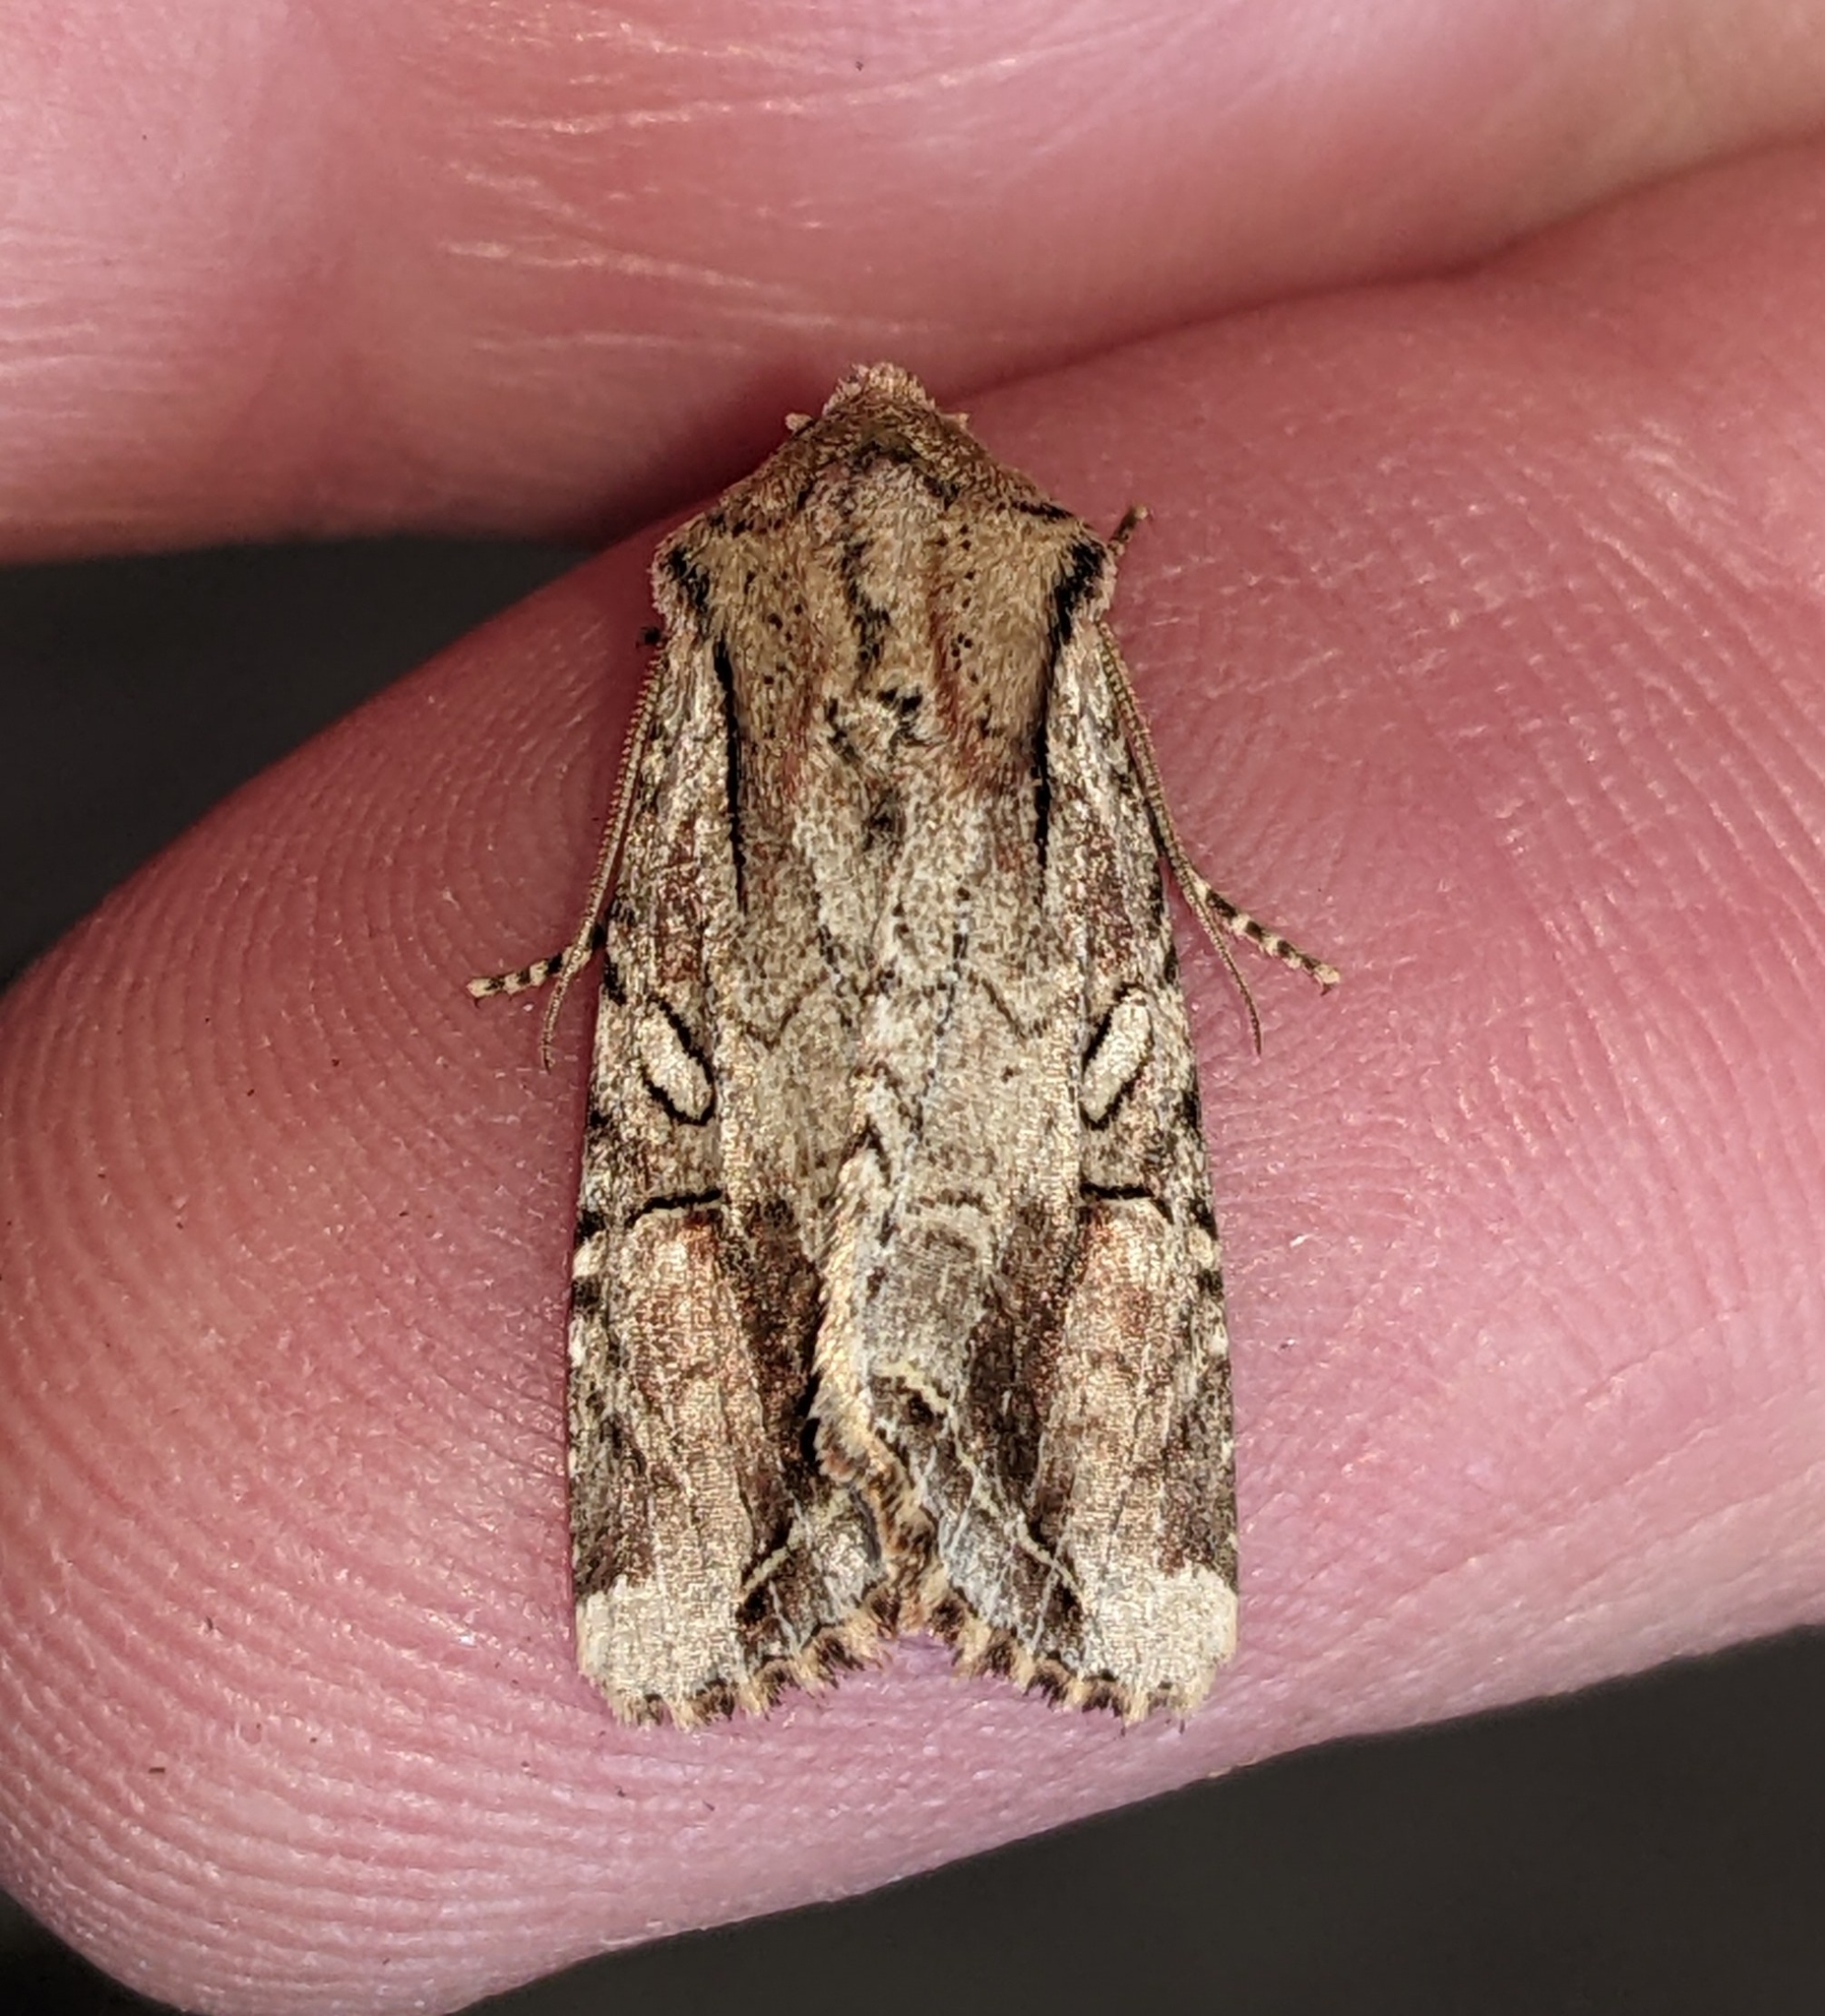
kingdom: Animalia
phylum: Arthropoda
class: Insecta
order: Lepidoptera
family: Noctuidae
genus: Egira
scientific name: Egira rubrica
